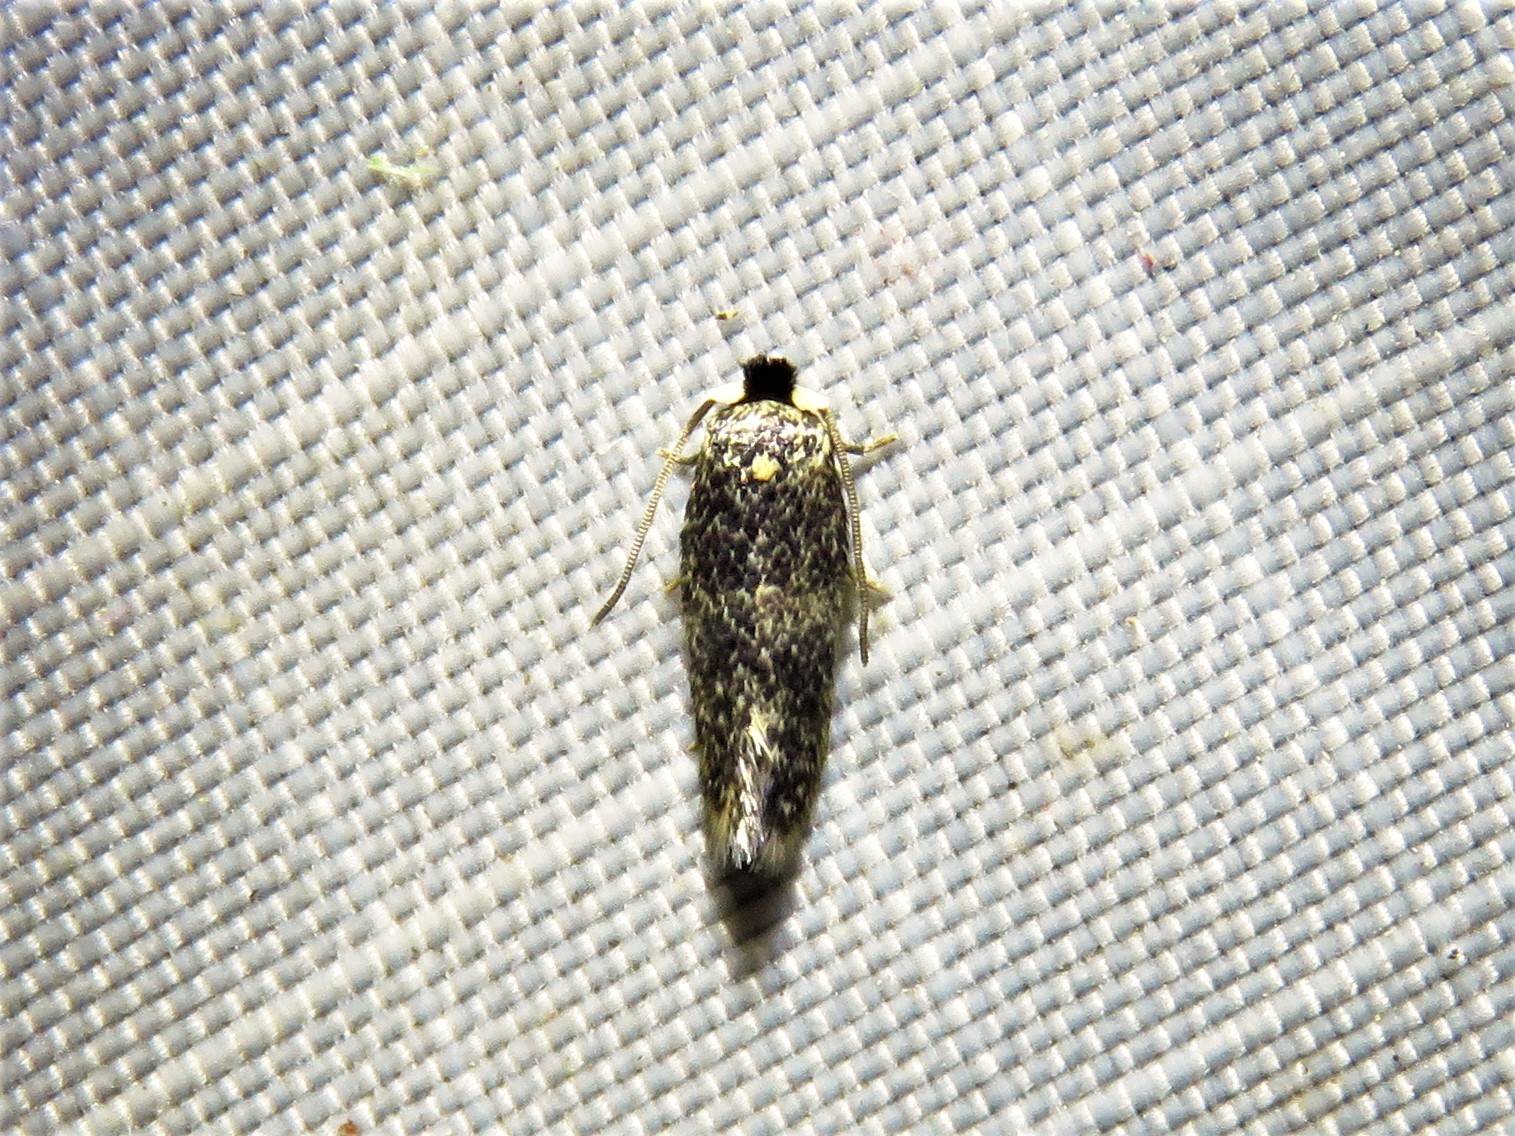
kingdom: Animalia
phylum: Arthropoda
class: Insecta
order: Lepidoptera
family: Nepticulidae
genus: Zimmermannia
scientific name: Zimmermannia bosquella
